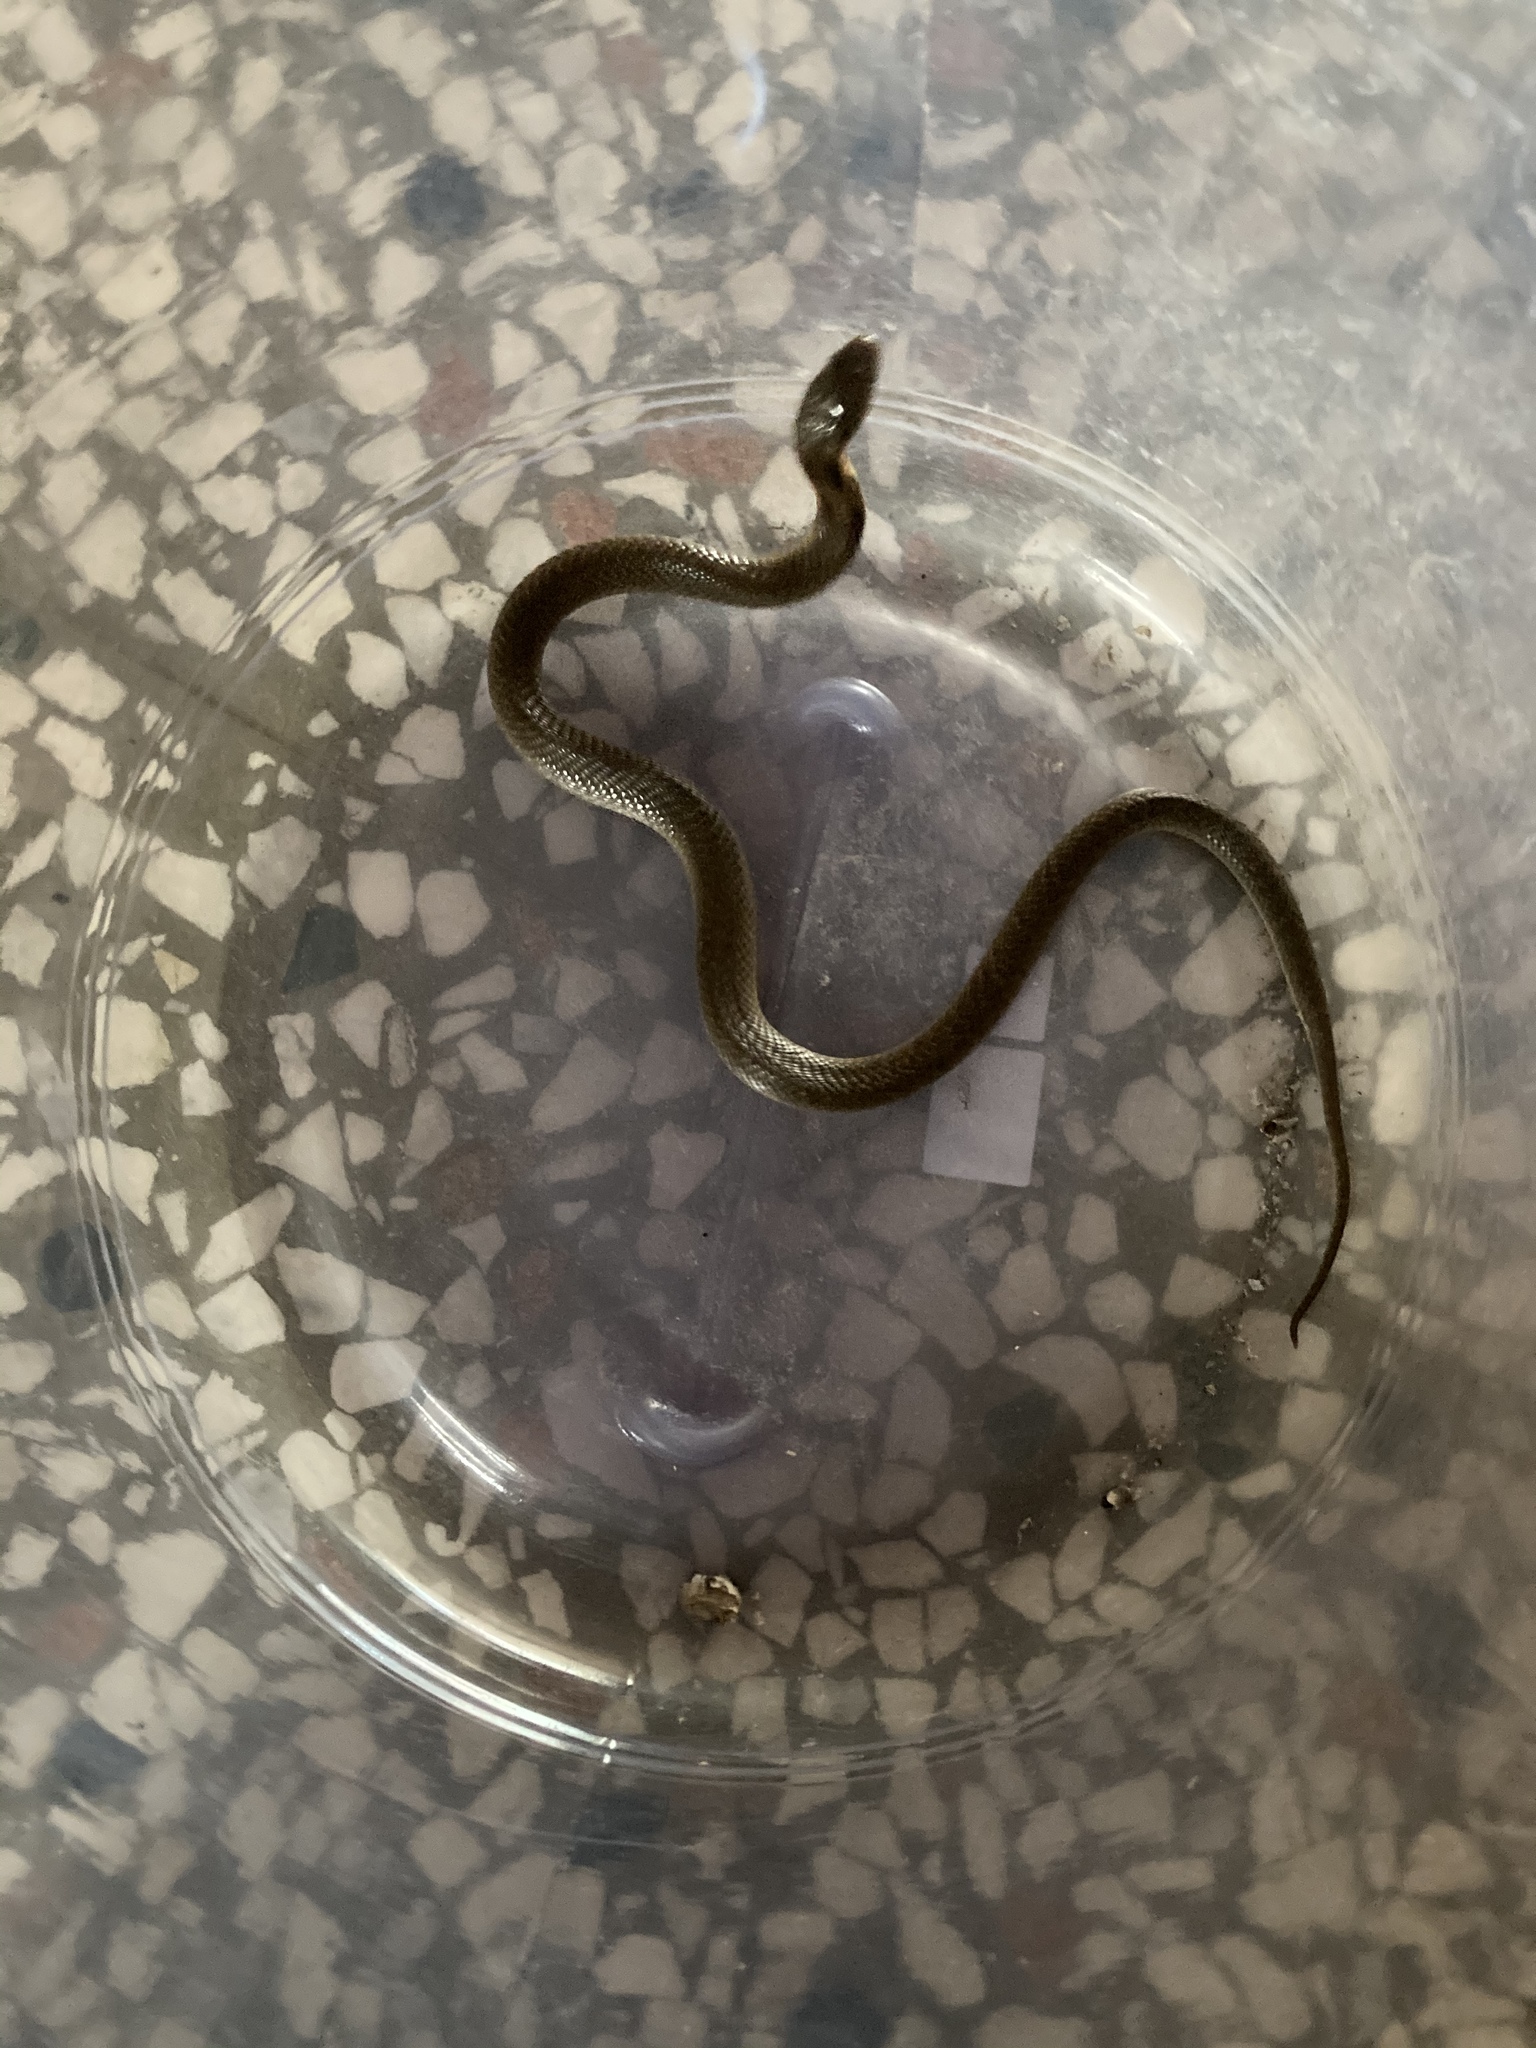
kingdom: Animalia
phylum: Chordata
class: Squamata
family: Elapidae
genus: Naja
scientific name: Naja atra
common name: Chinese cobra
